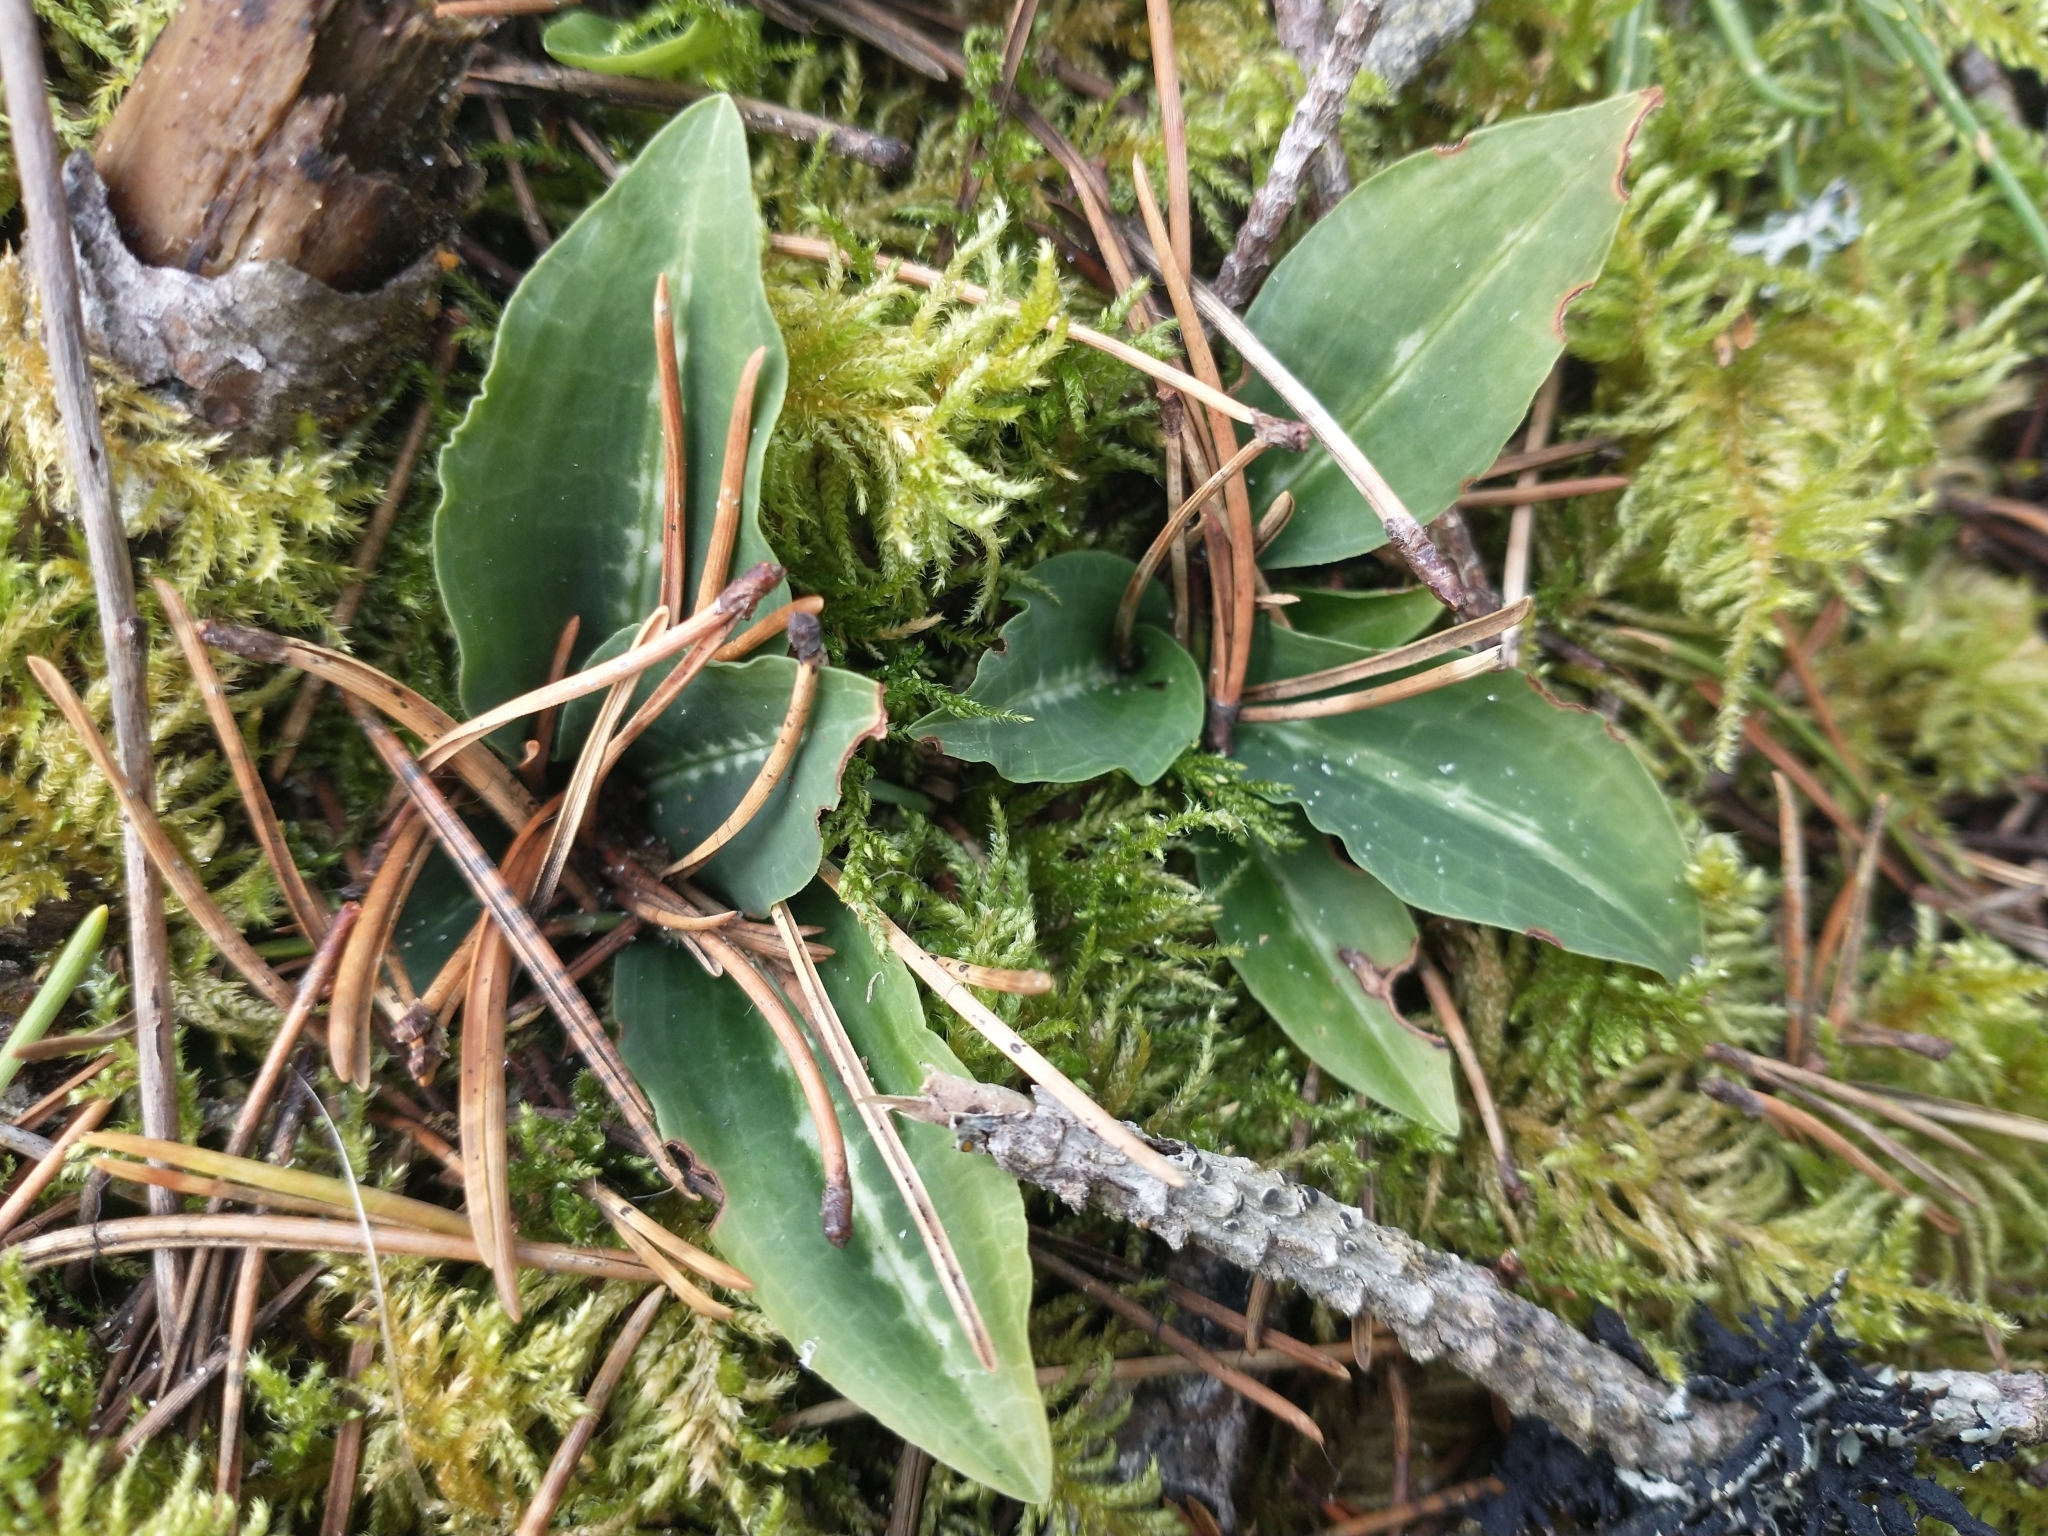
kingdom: Plantae
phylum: Tracheophyta
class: Liliopsida
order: Asparagales
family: Orchidaceae
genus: Goodyera
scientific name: Goodyera oblongifolia
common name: Giant rattlesnake-plantain
